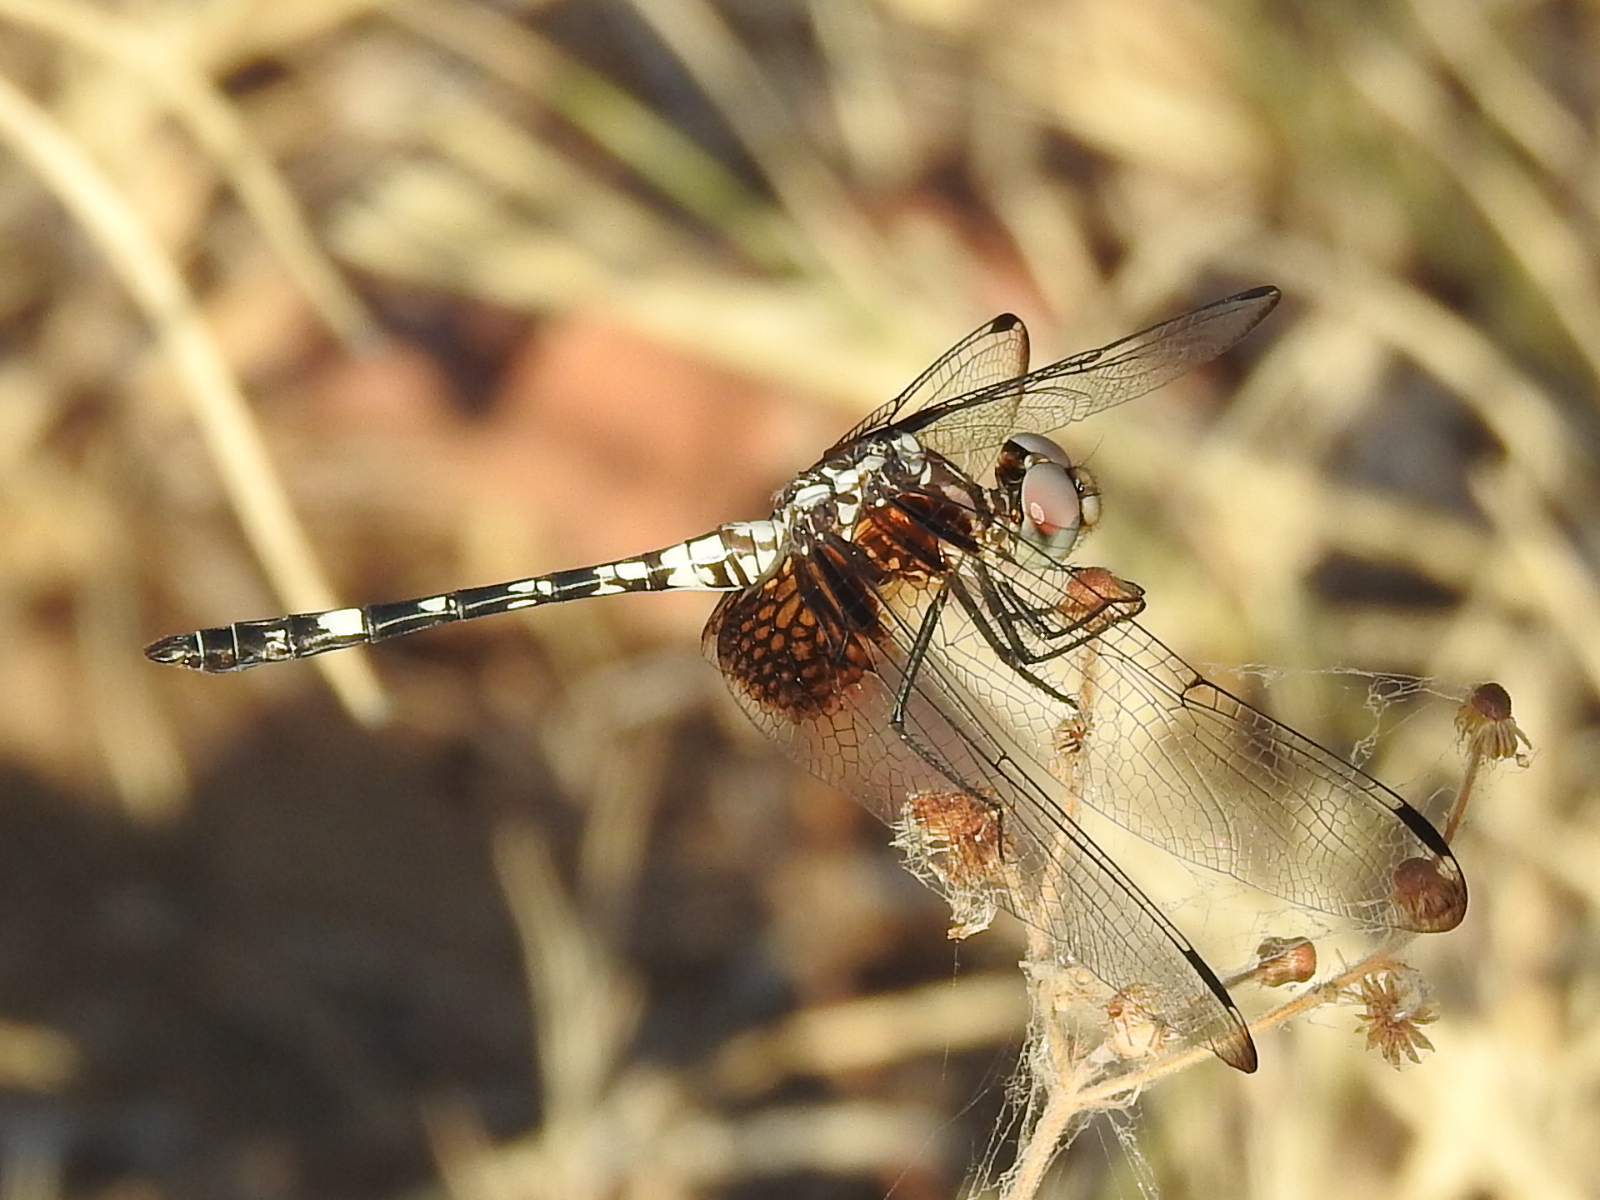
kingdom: Animalia
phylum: Arthropoda
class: Insecta
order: Odonata
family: Libellulidae
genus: Dythemis
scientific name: Dythemis fugax
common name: Checkered setwing
